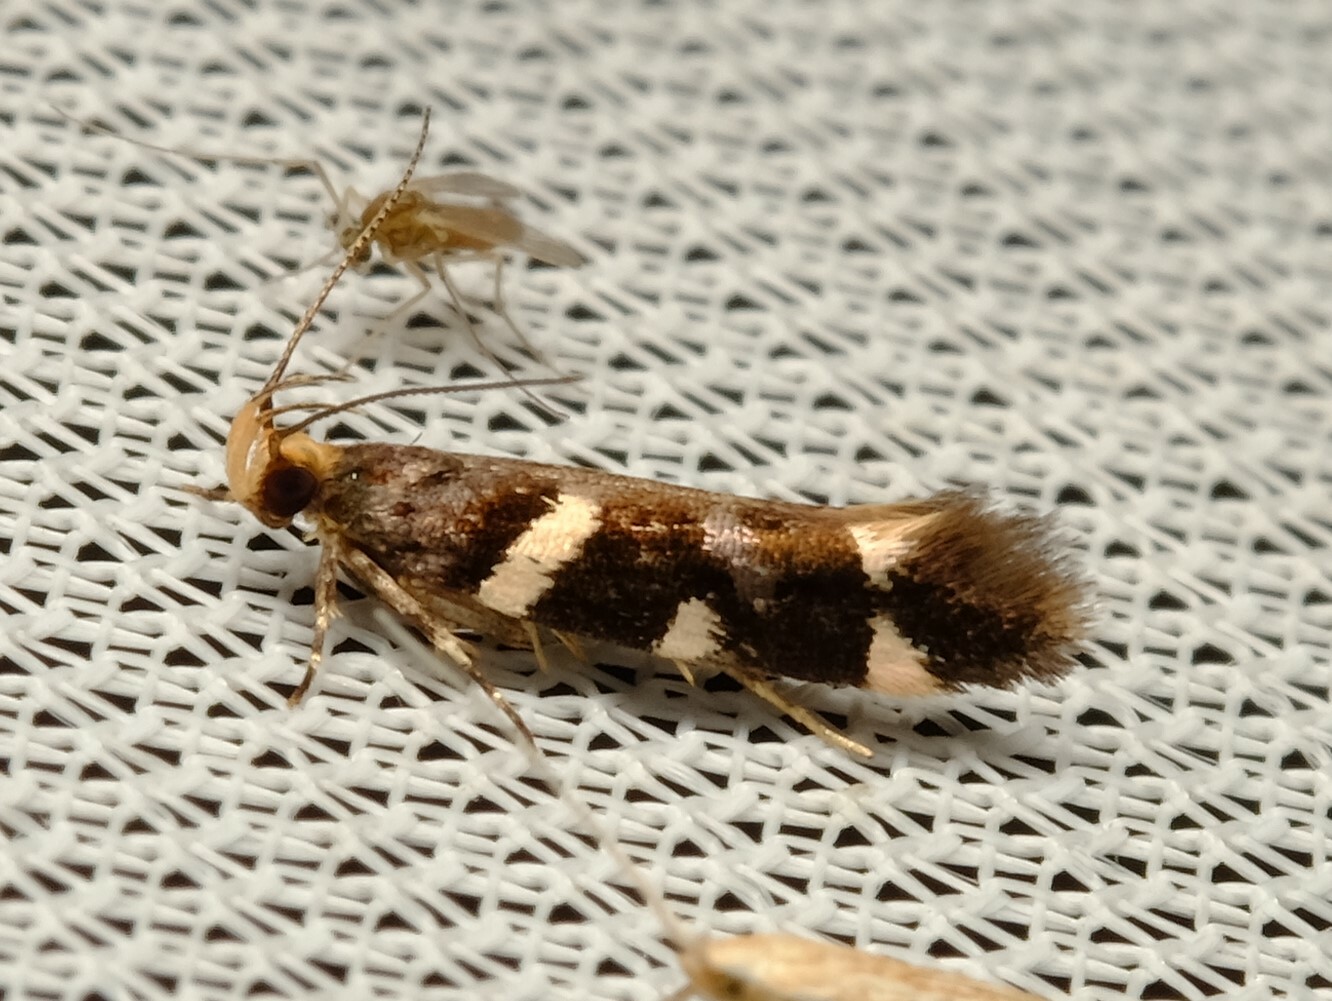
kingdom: Animalia
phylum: Arthropoda
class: Insecta
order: Lepidoptera
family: Cosmopterigidae
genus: Macrobathra
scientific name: Macrobathra ceraunobola
